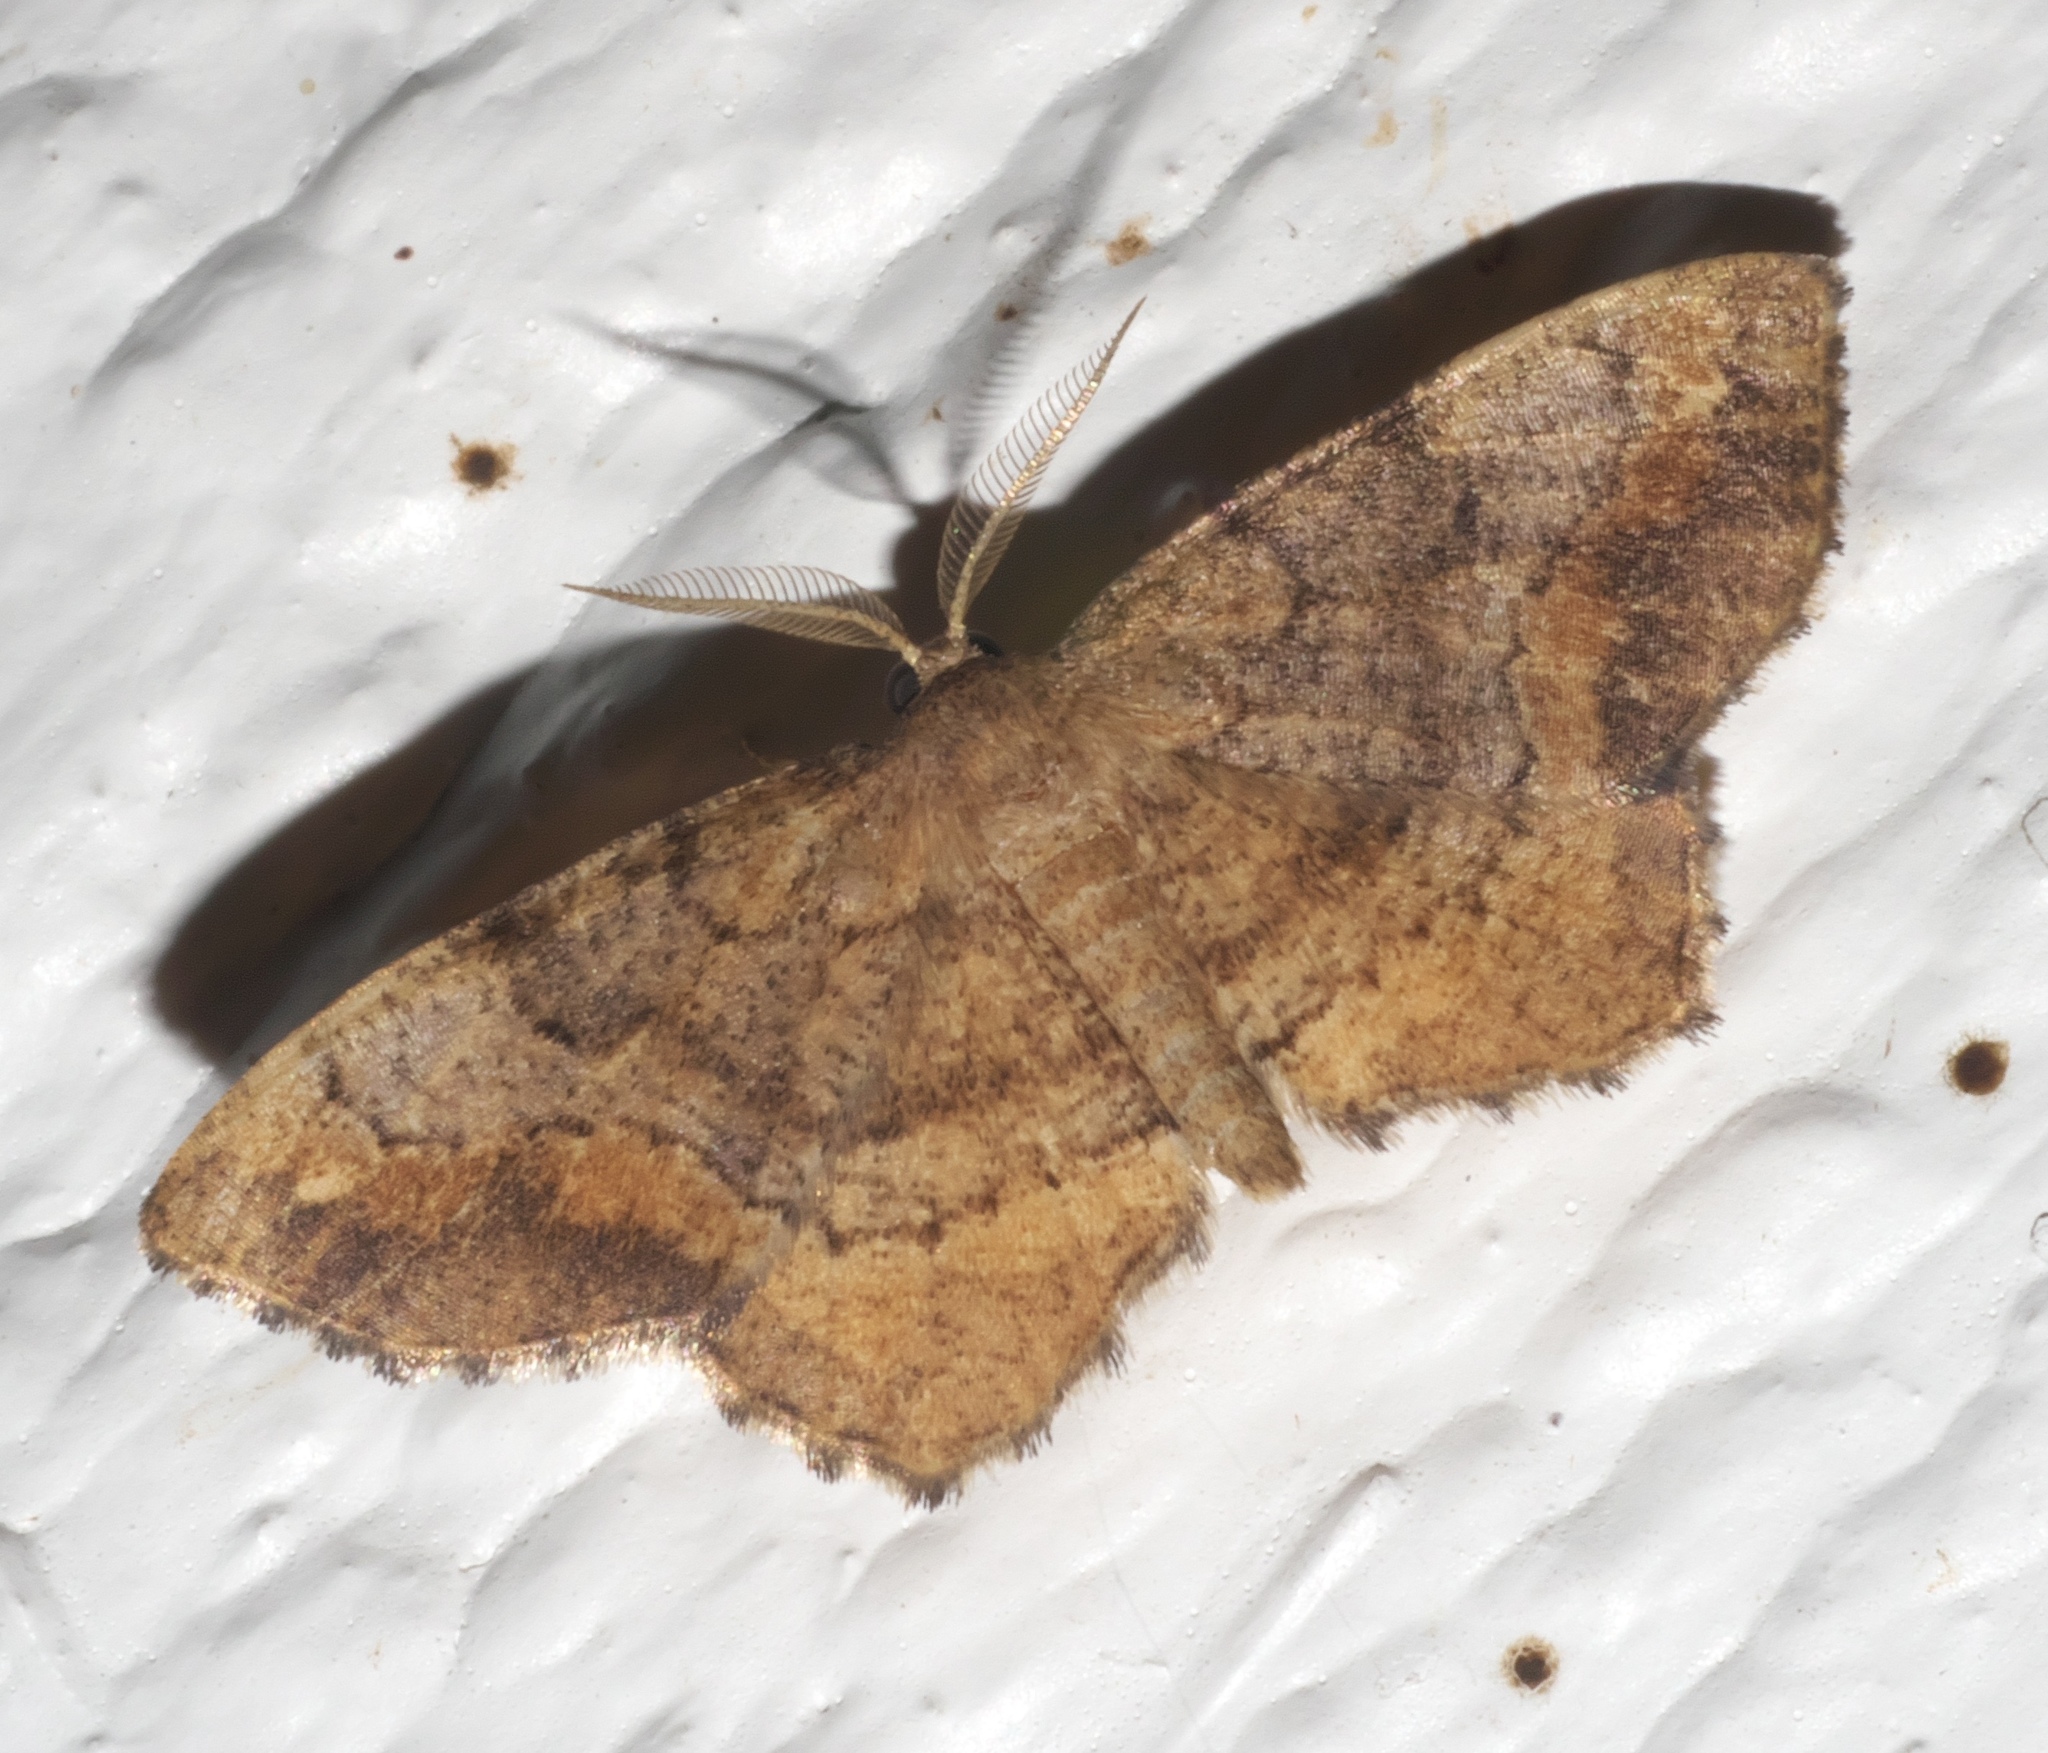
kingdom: Animalia
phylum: Arthropoda
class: Insecta
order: Lepidoptera
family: Geometridae
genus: Hypagyrtis
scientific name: Hypagyrtis unipunctata
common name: One-spotted variant
